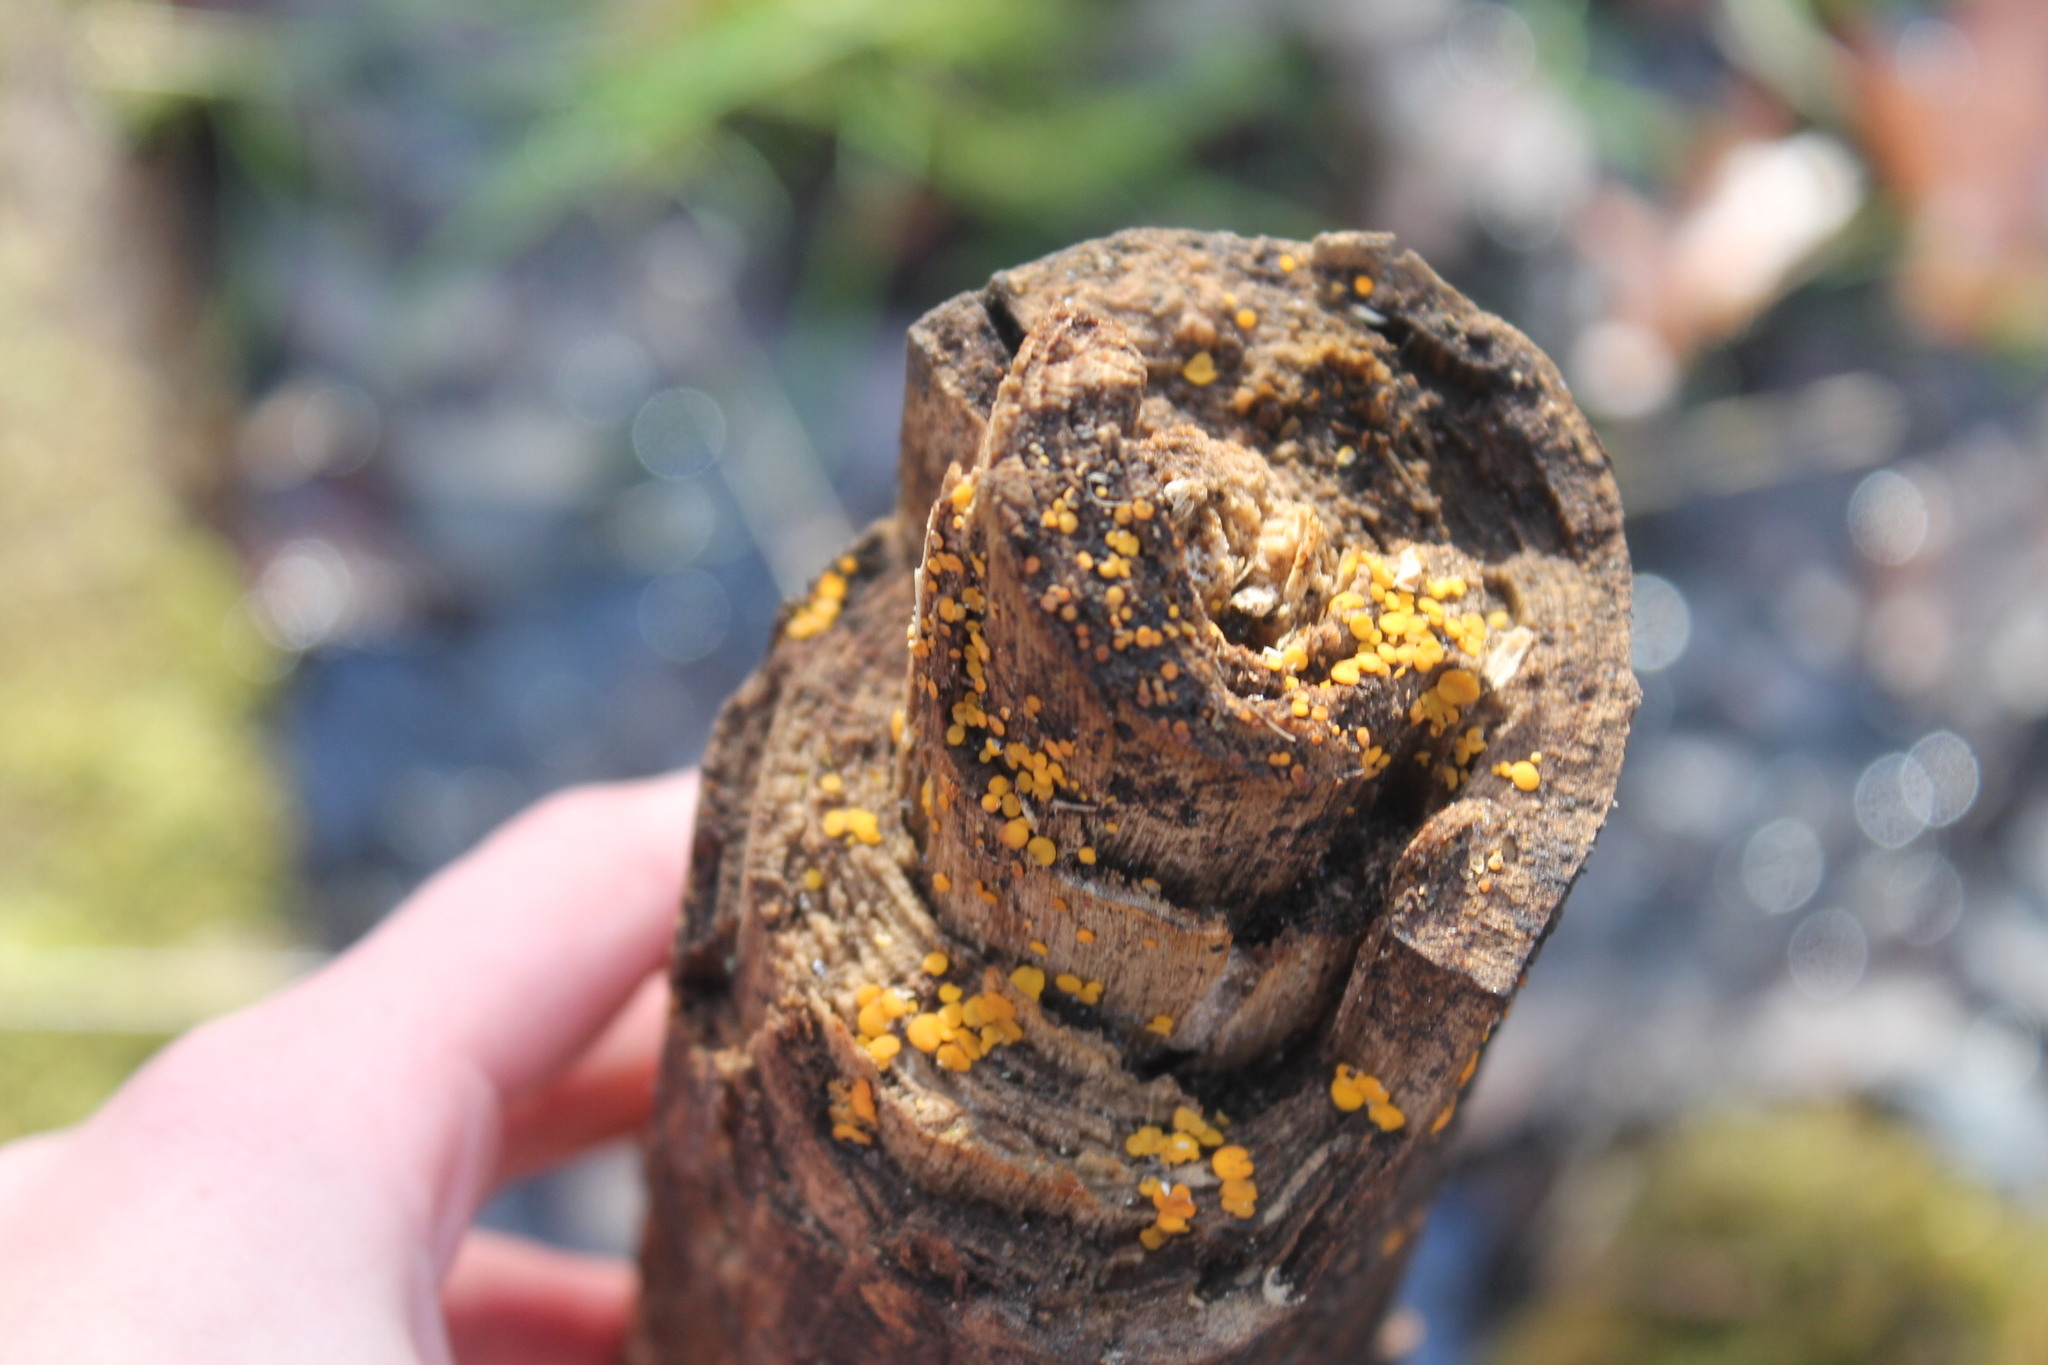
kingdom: Fungi
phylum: Ascomycota
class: Leotiomycetes
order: Helotiales
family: Pezizellaceae
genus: Calycina
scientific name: Calycina citrina
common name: Yellow fairy cups
